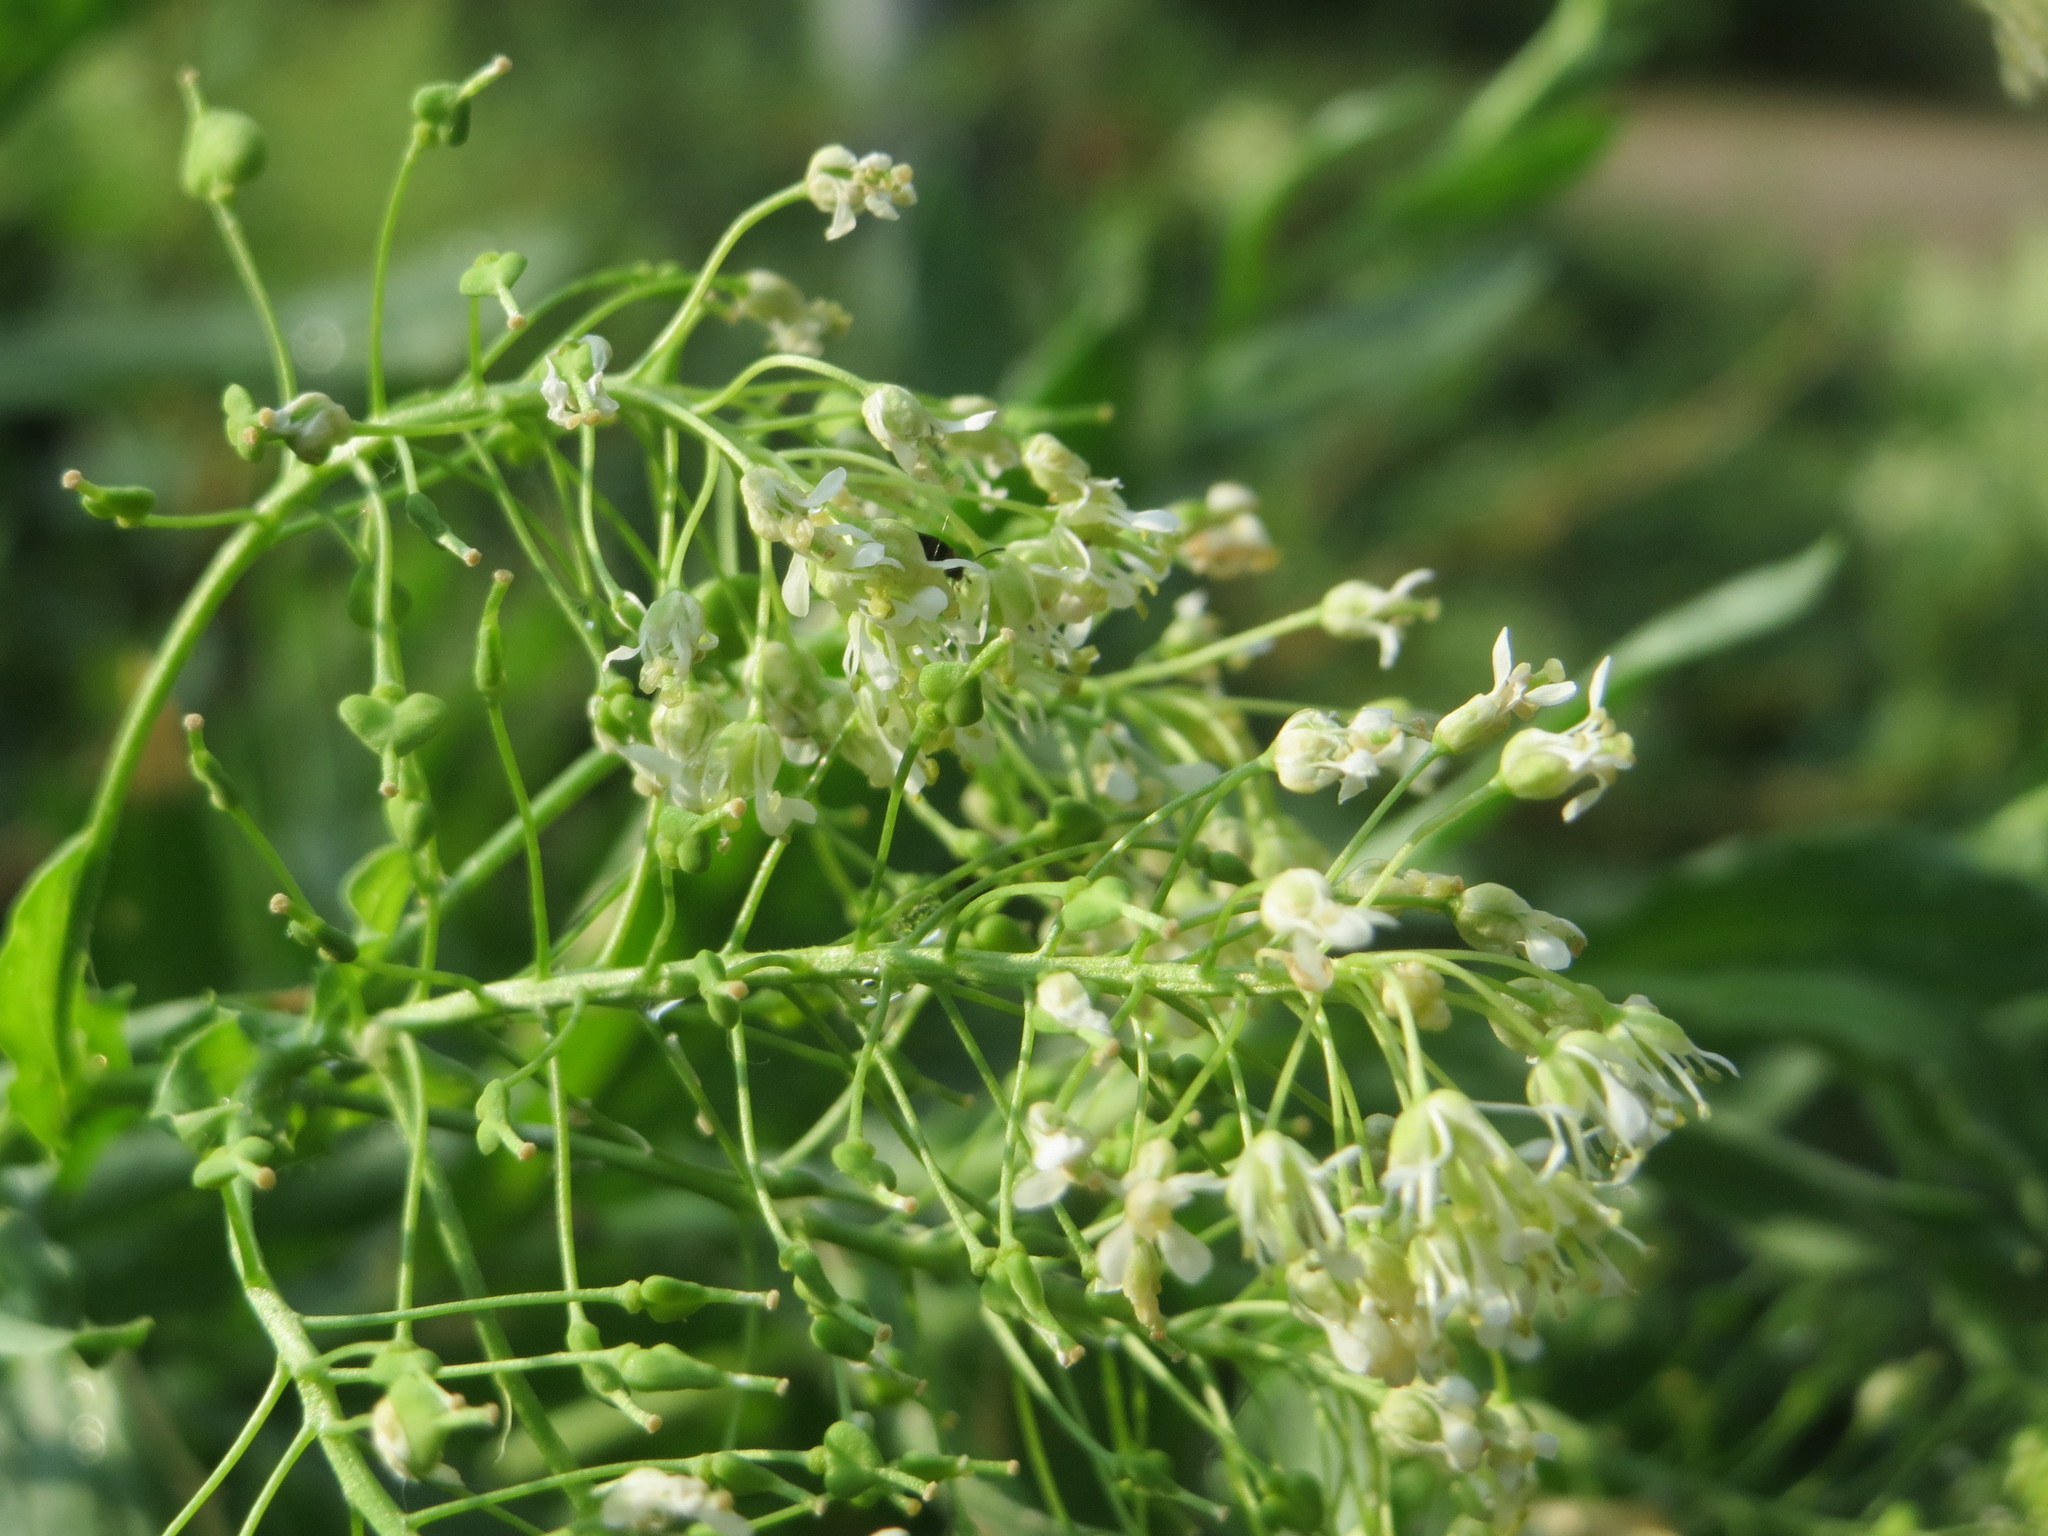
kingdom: Plantae
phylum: Tracheophyta
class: Magnoliopsida
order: Brassicales
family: Brassicaceae
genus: Lepidium
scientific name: Lepidium draba
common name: Hoary cress
